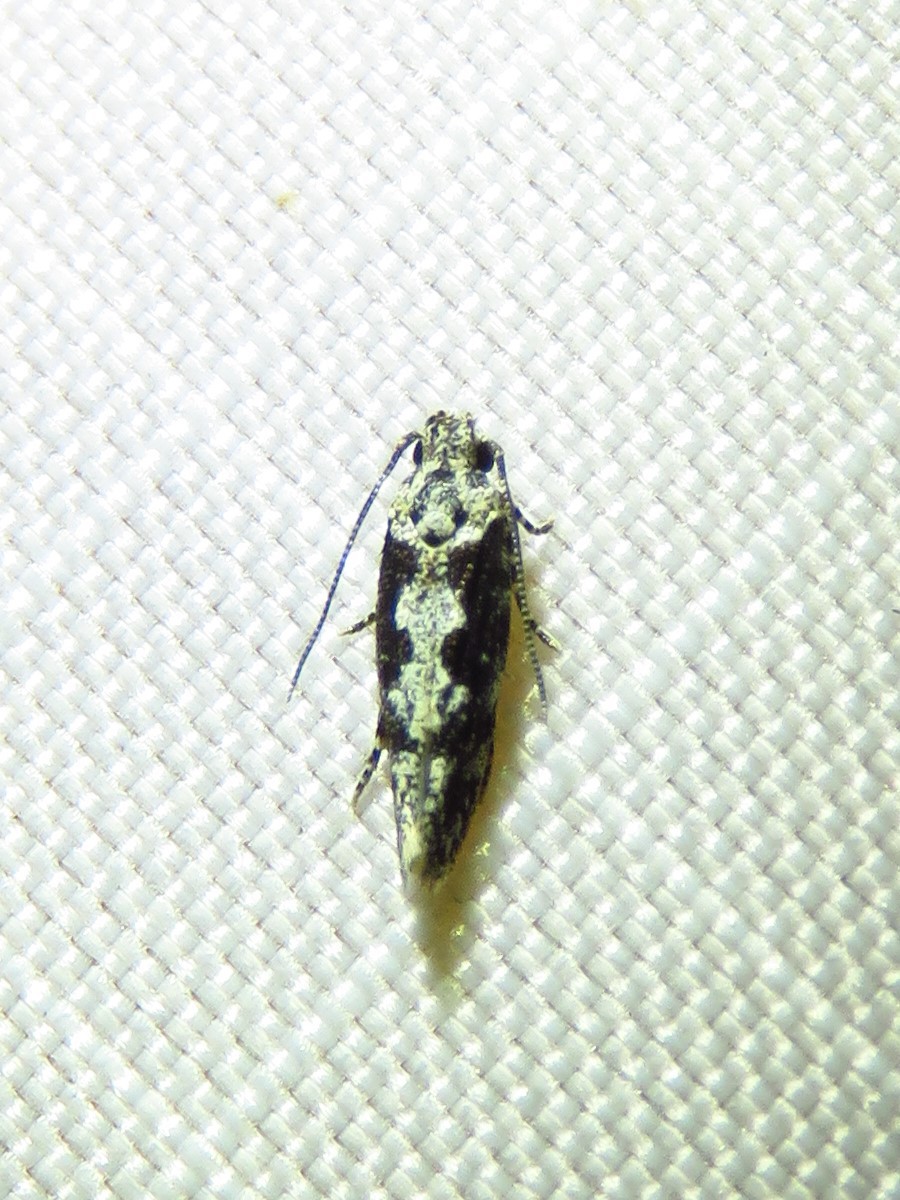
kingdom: Animalia
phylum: Arthropoda
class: Insecta
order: Lepidoptera
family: Ethmiidae
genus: Ethmia
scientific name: Ethmia hodgesella
